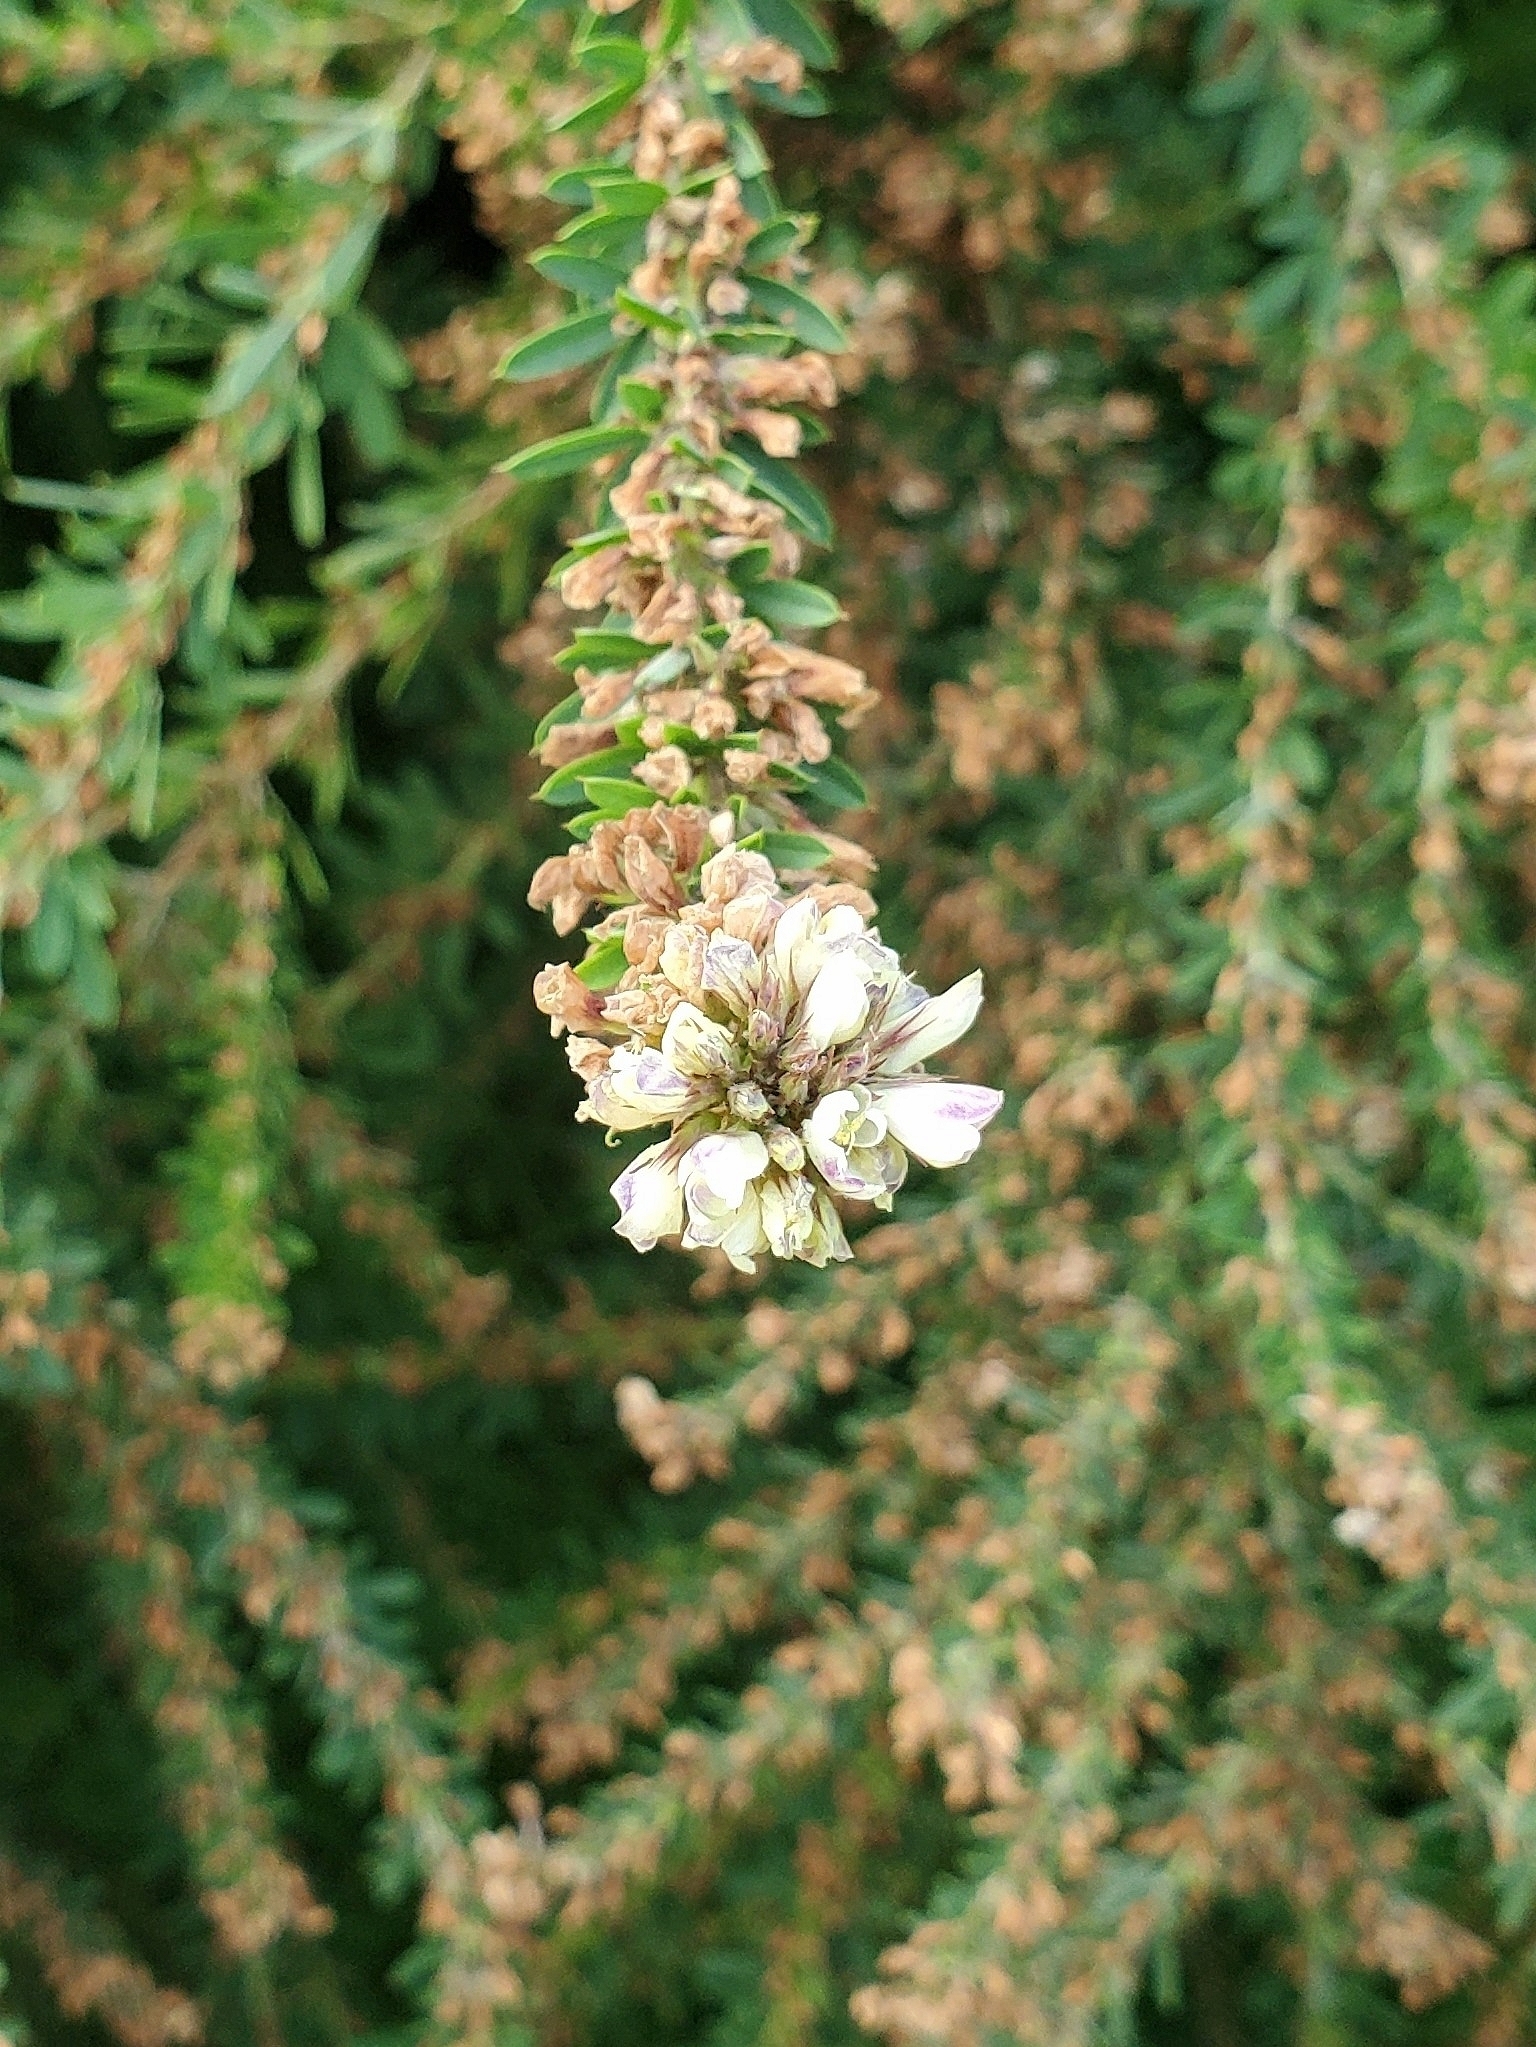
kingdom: Plantae
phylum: Tracheophyta
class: Magnoliopsida
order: Fabales
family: Fabaceae
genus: Lespedeza
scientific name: Lespedeza cuneata
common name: Chinese bush-clover
